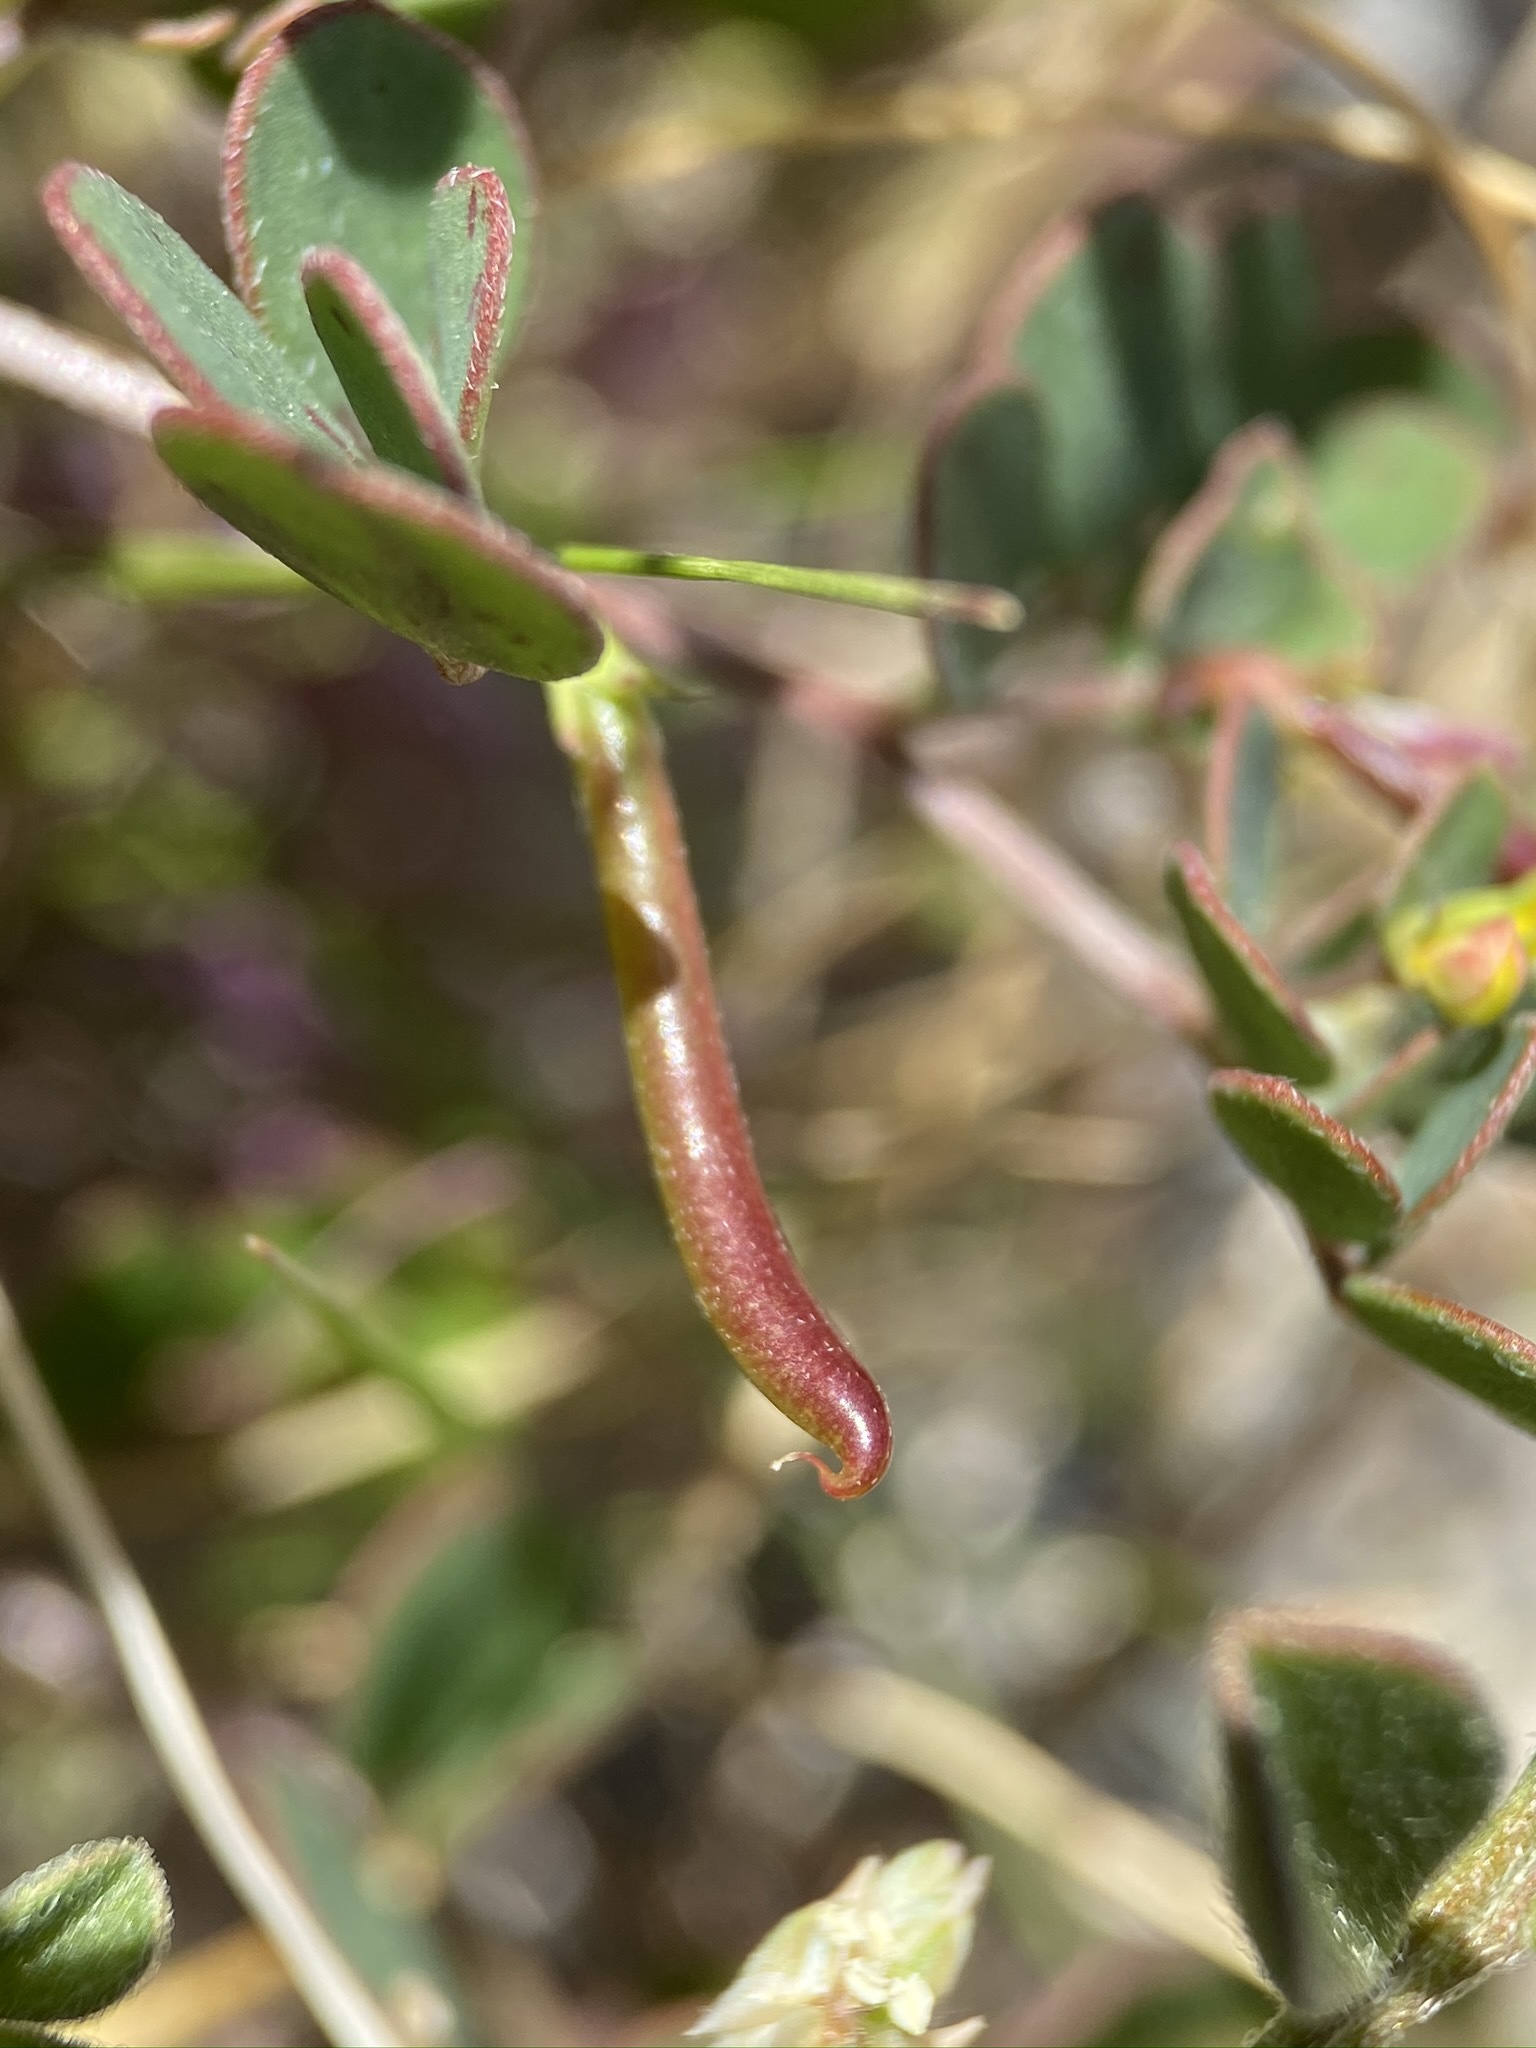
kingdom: Plantae
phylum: Tracheophyta
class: Magnoliopsida
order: Fabales
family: Fabaceae
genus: Acmispon
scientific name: Acmispon maritimus
